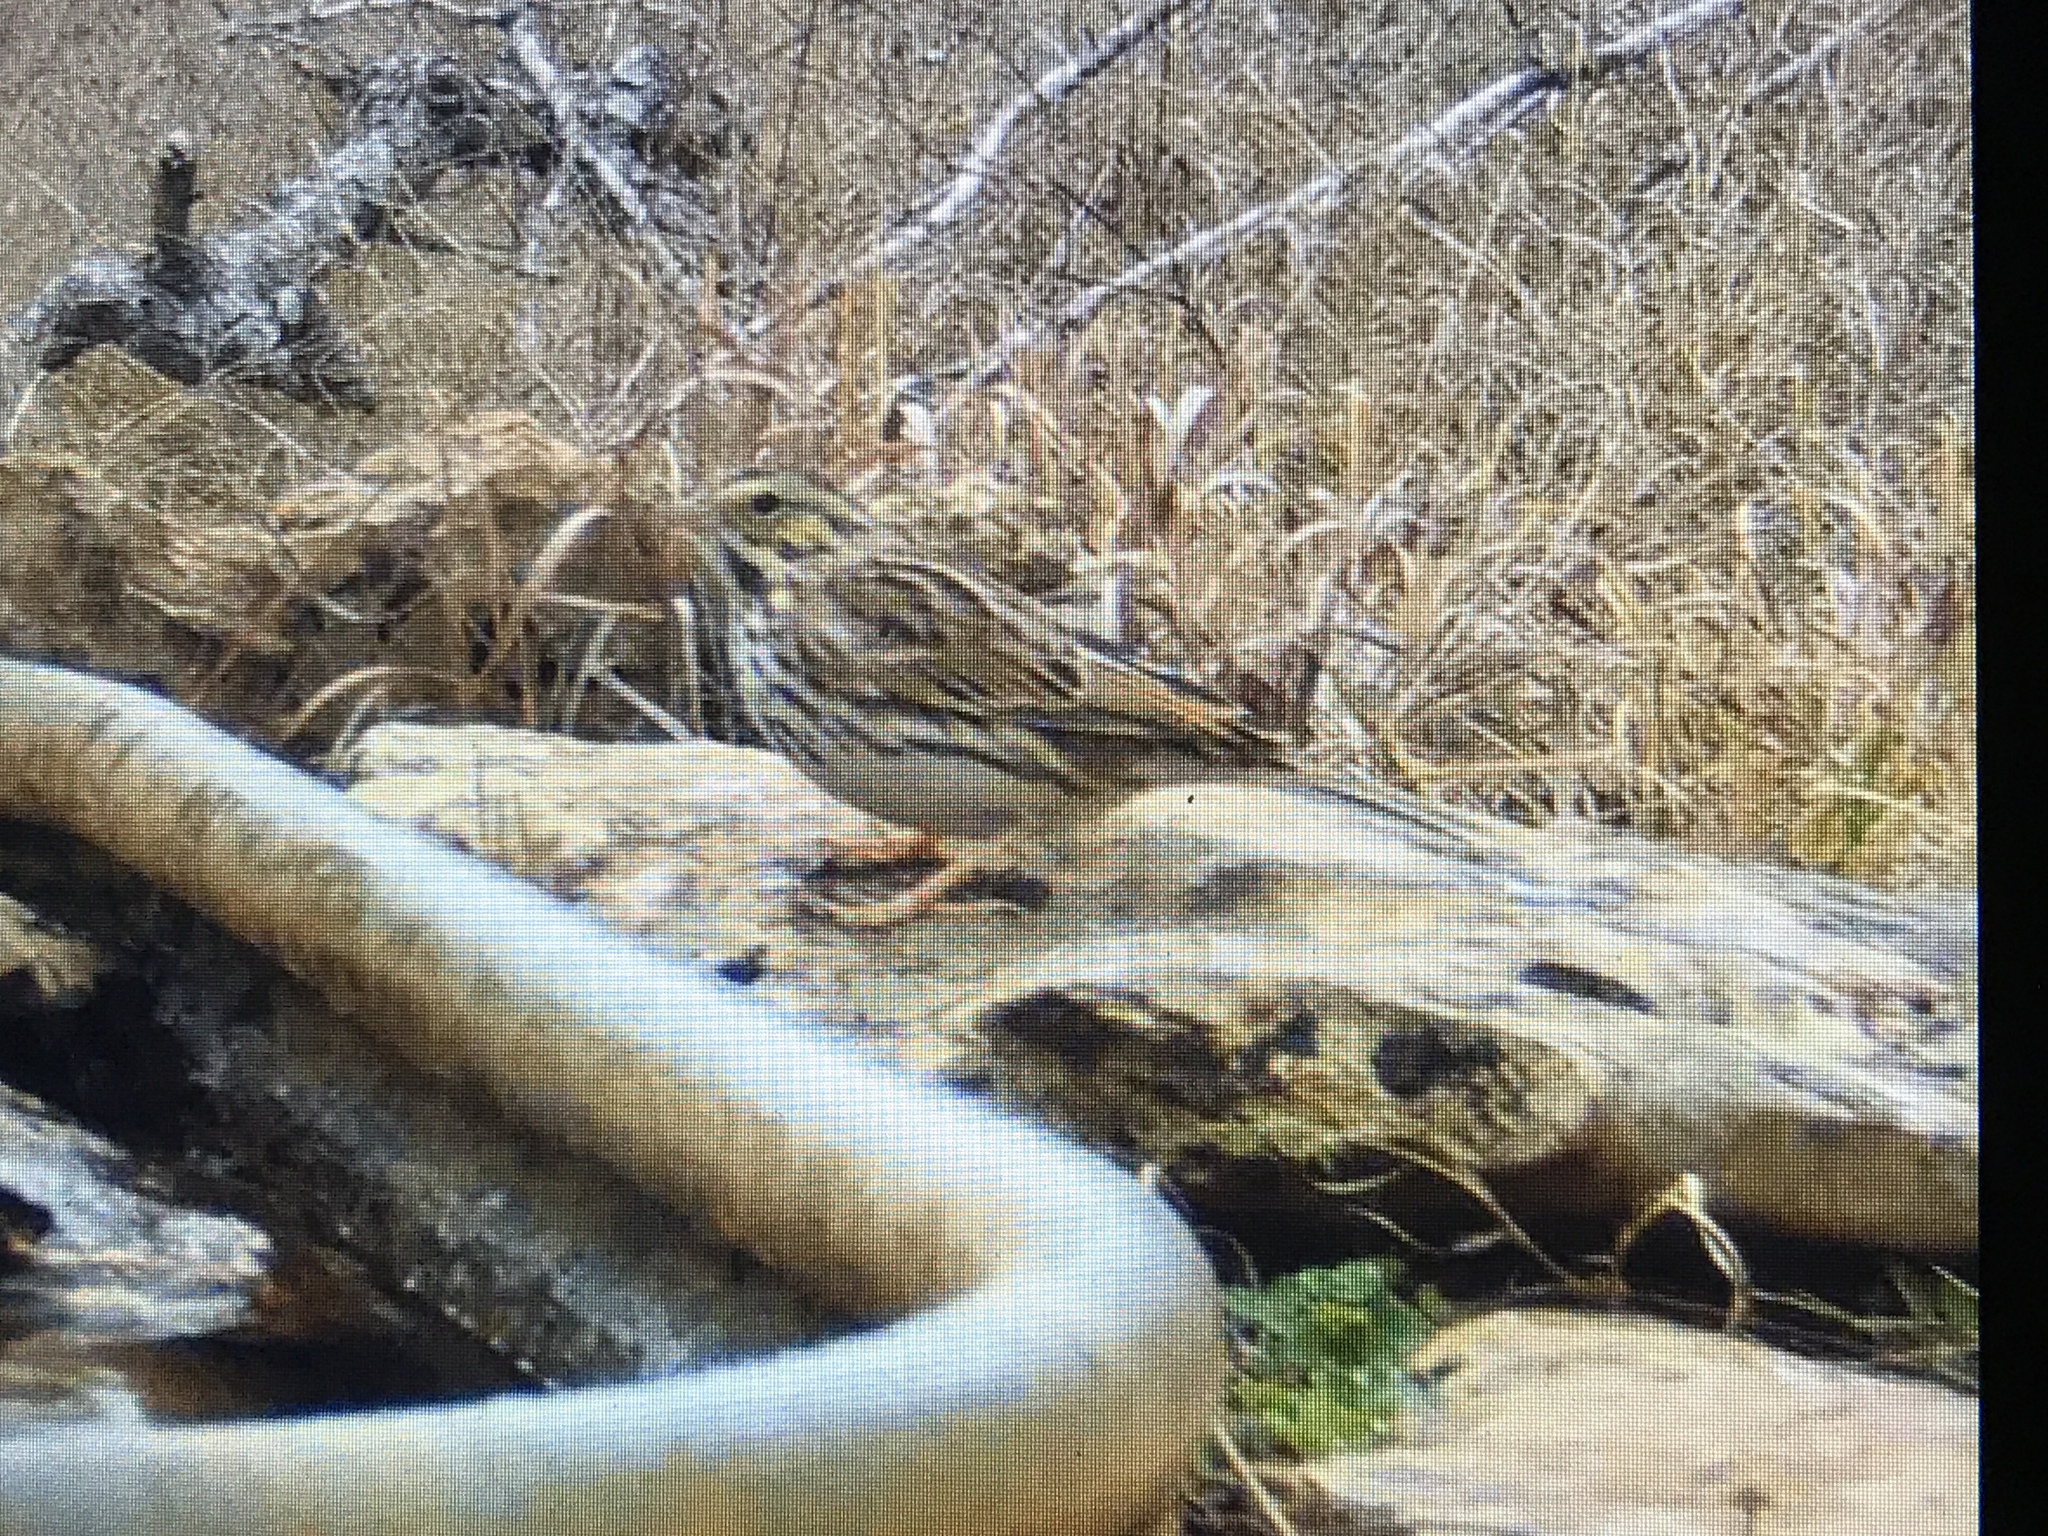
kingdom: Animalia
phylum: Chordata
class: Aves
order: Passeriformes
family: Passerellidae
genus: Passerculus
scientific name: Passerculus sandwichensis
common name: Savannah sparrow
